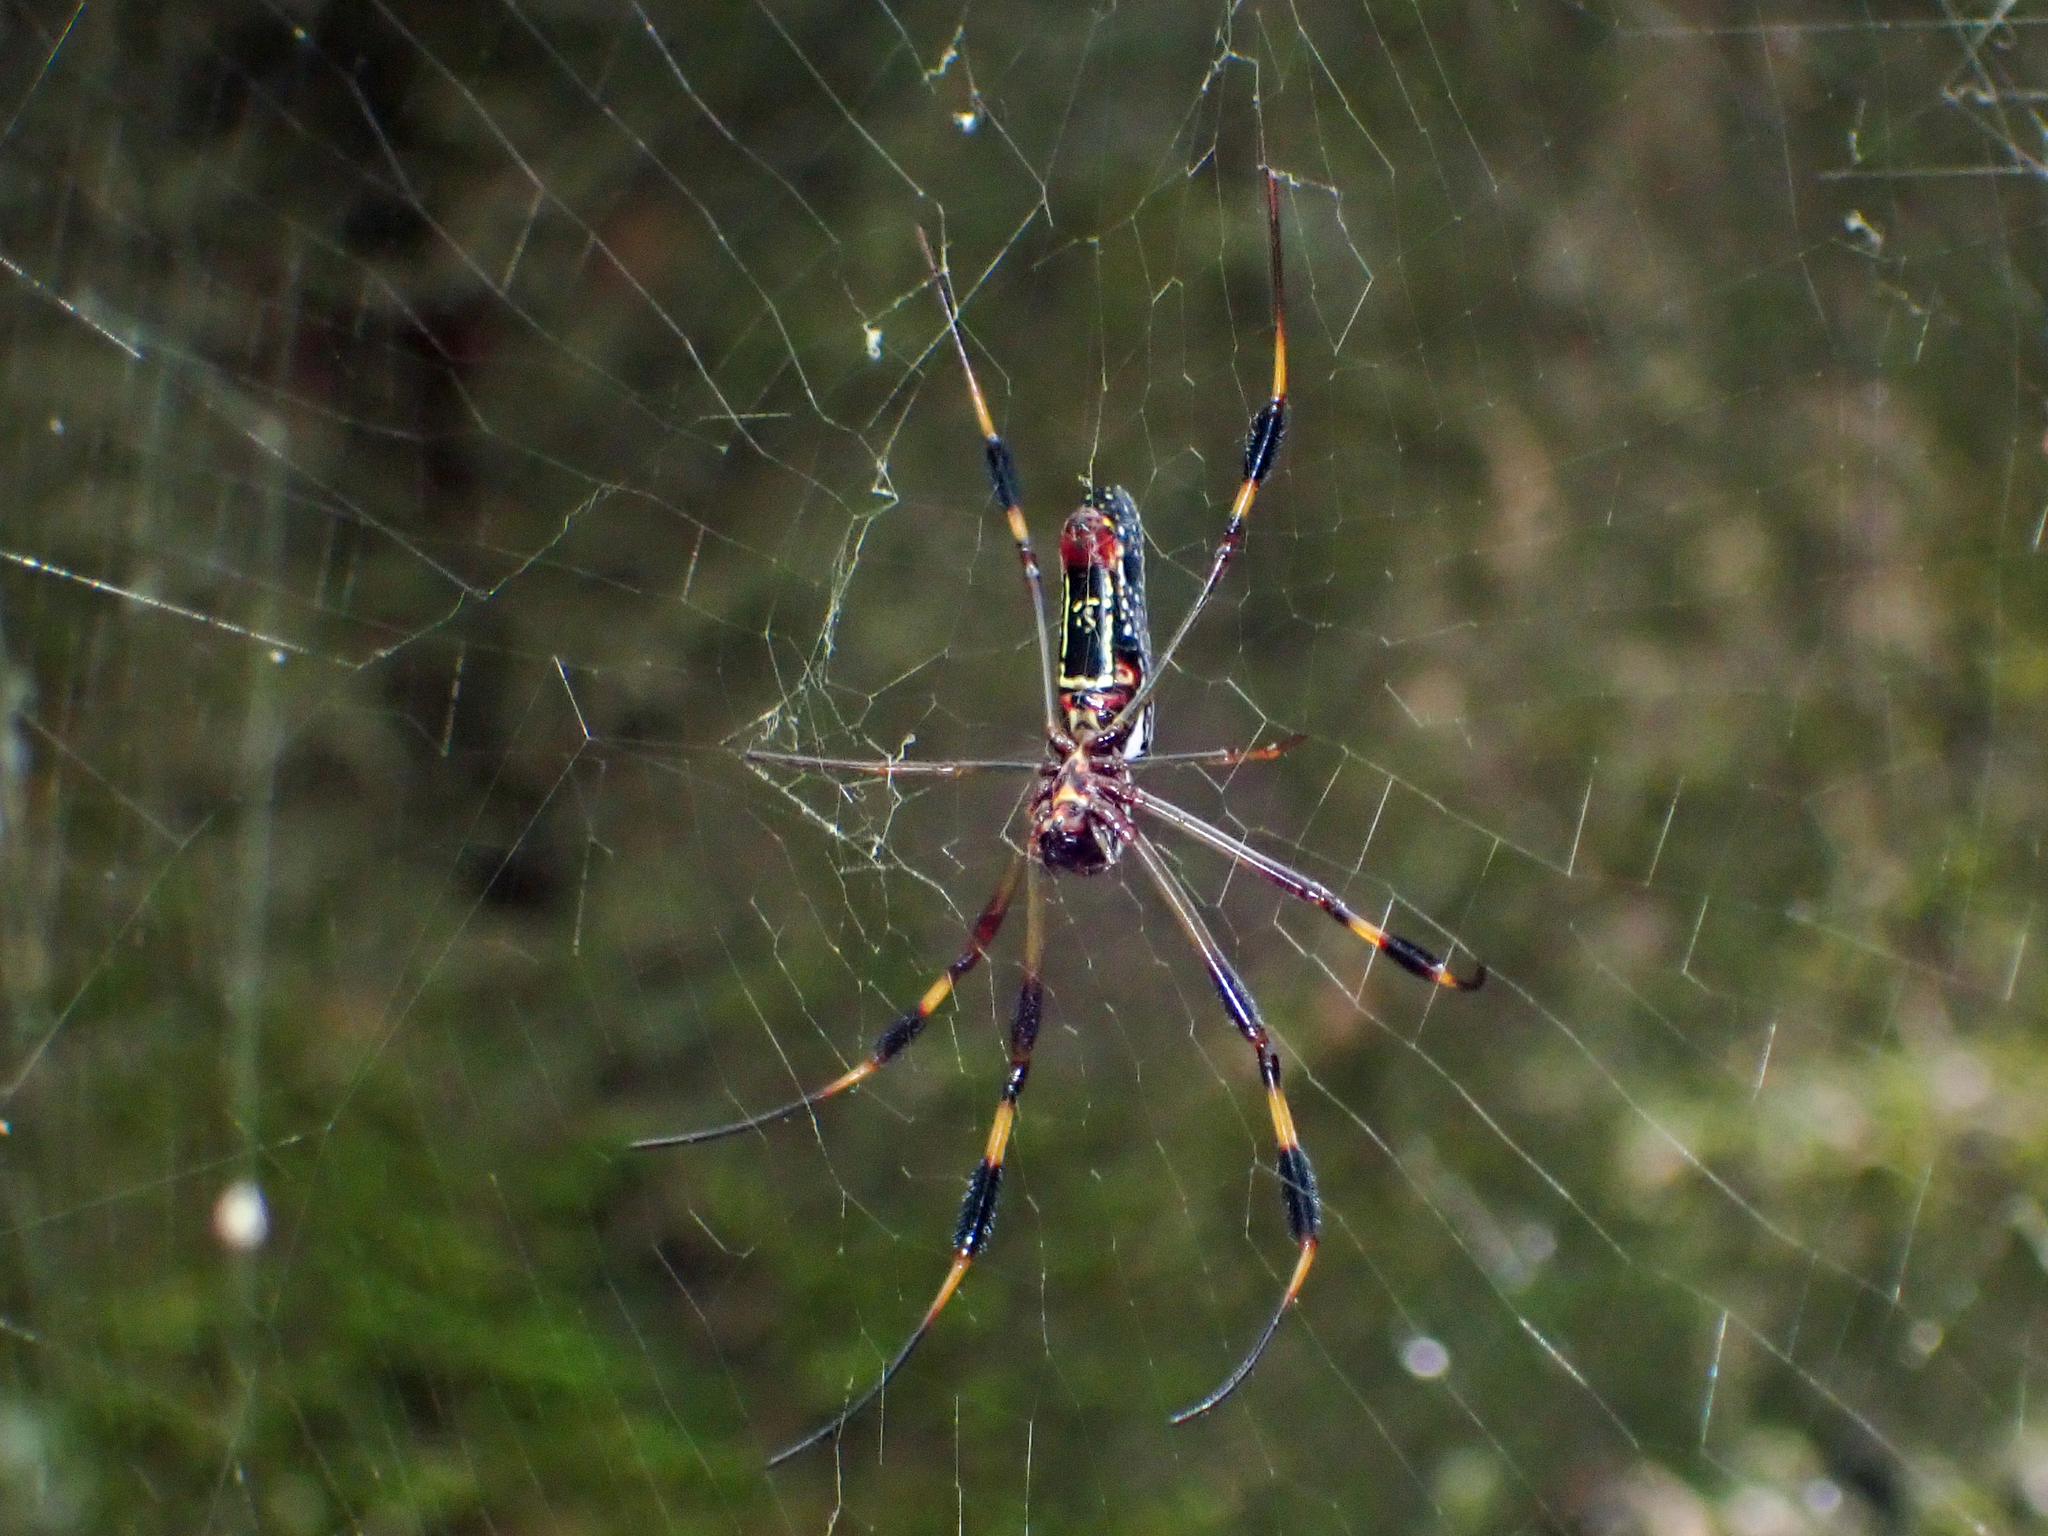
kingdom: Animalia
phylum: Arthropoda
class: Arachnida
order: Araneae
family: Araneidae
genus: Trichonephila
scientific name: Trichonephila clavipes
